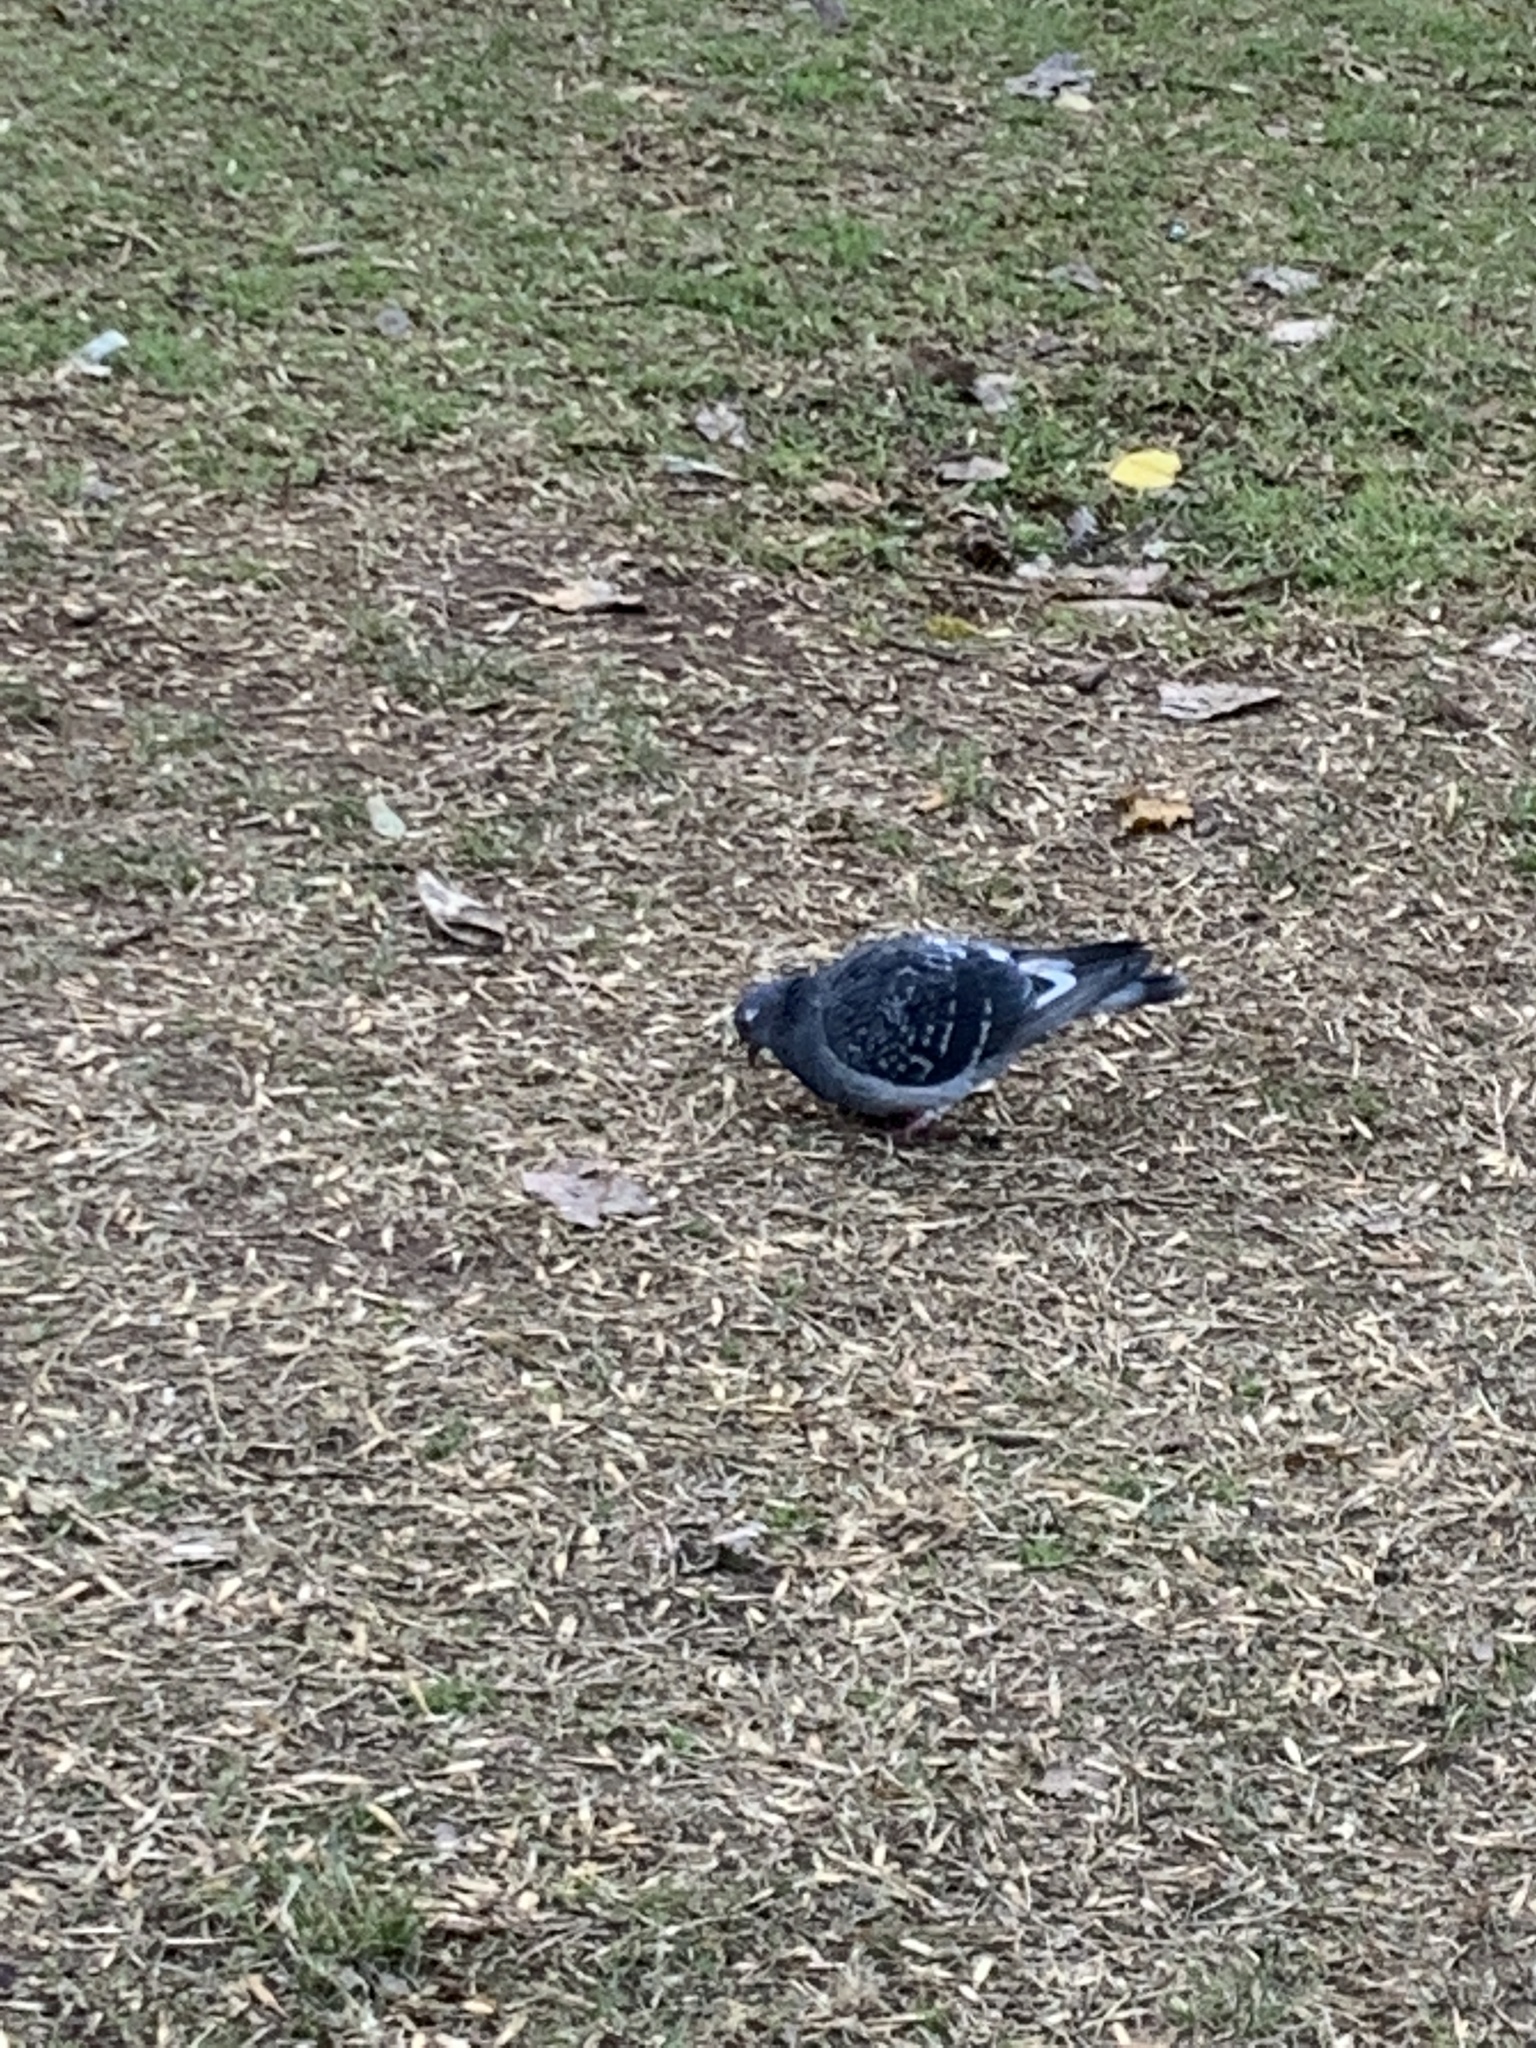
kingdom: Animalia
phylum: Chordata
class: Aves
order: Columbiformes
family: Columbidae
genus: Columba
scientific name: Columba livia
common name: Rock pigeon
